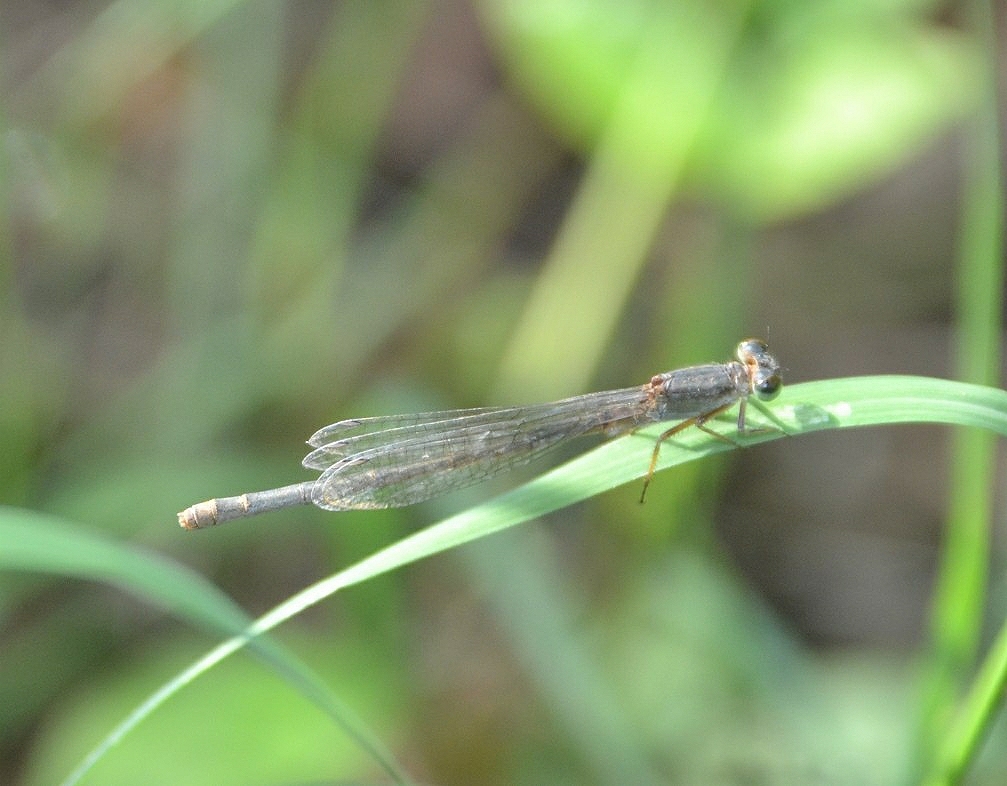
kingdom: Animalia
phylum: Arthropoda
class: Insecta
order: Odonata
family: Coenagrionidae
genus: Ischnura
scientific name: Ischnura senegalensis
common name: Tropical bluetail
